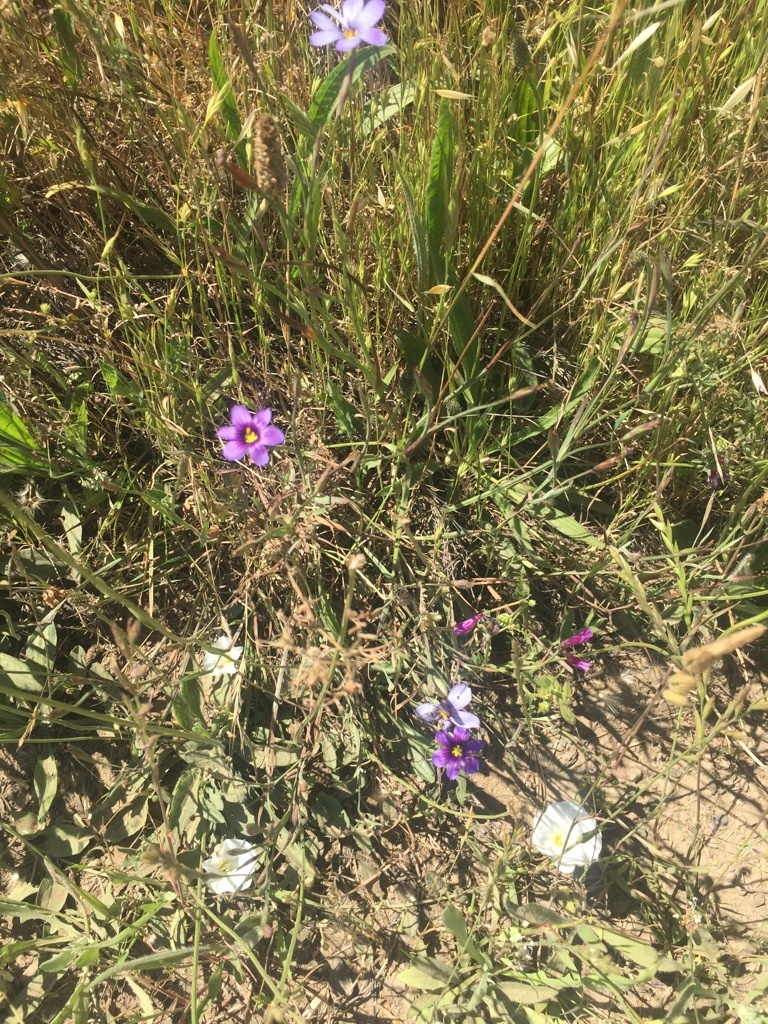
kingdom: Plantae
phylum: Tracheophyta
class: Liliopsida
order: Asparagales
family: Iridaceae
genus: Sisyrinchium
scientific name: Sisyrinchium bellum
